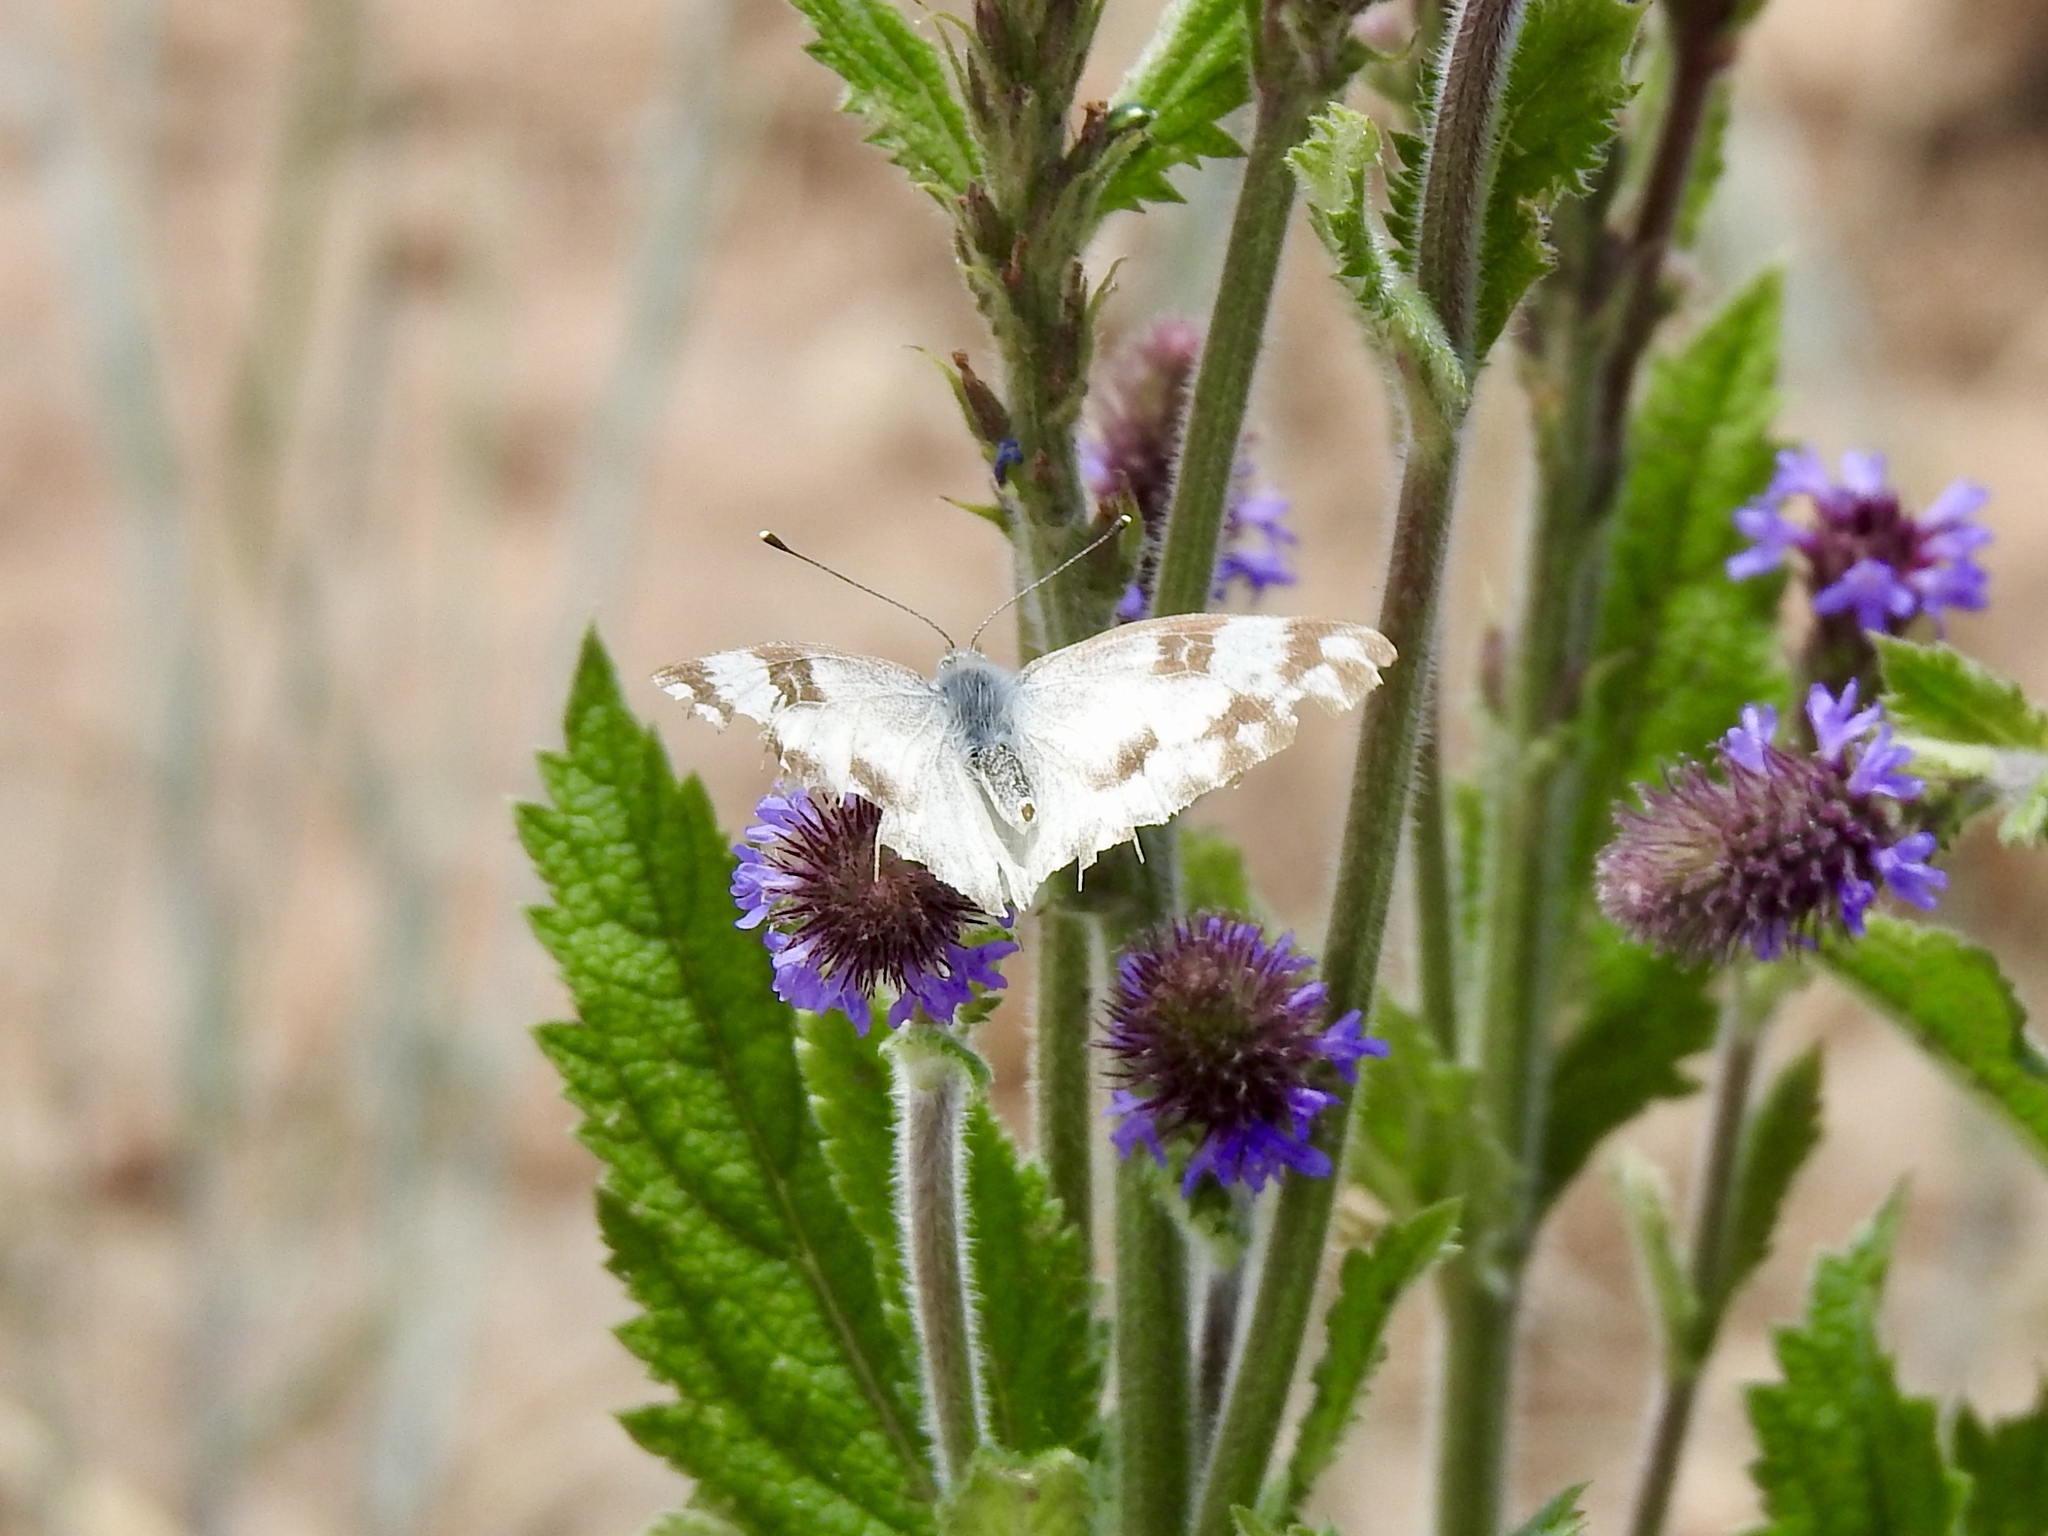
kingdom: Animalia
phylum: Arthropoda
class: Insecta
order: Lepidoptera
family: Pieridae
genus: Pontia
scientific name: Pontia protodice
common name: Checkered white
